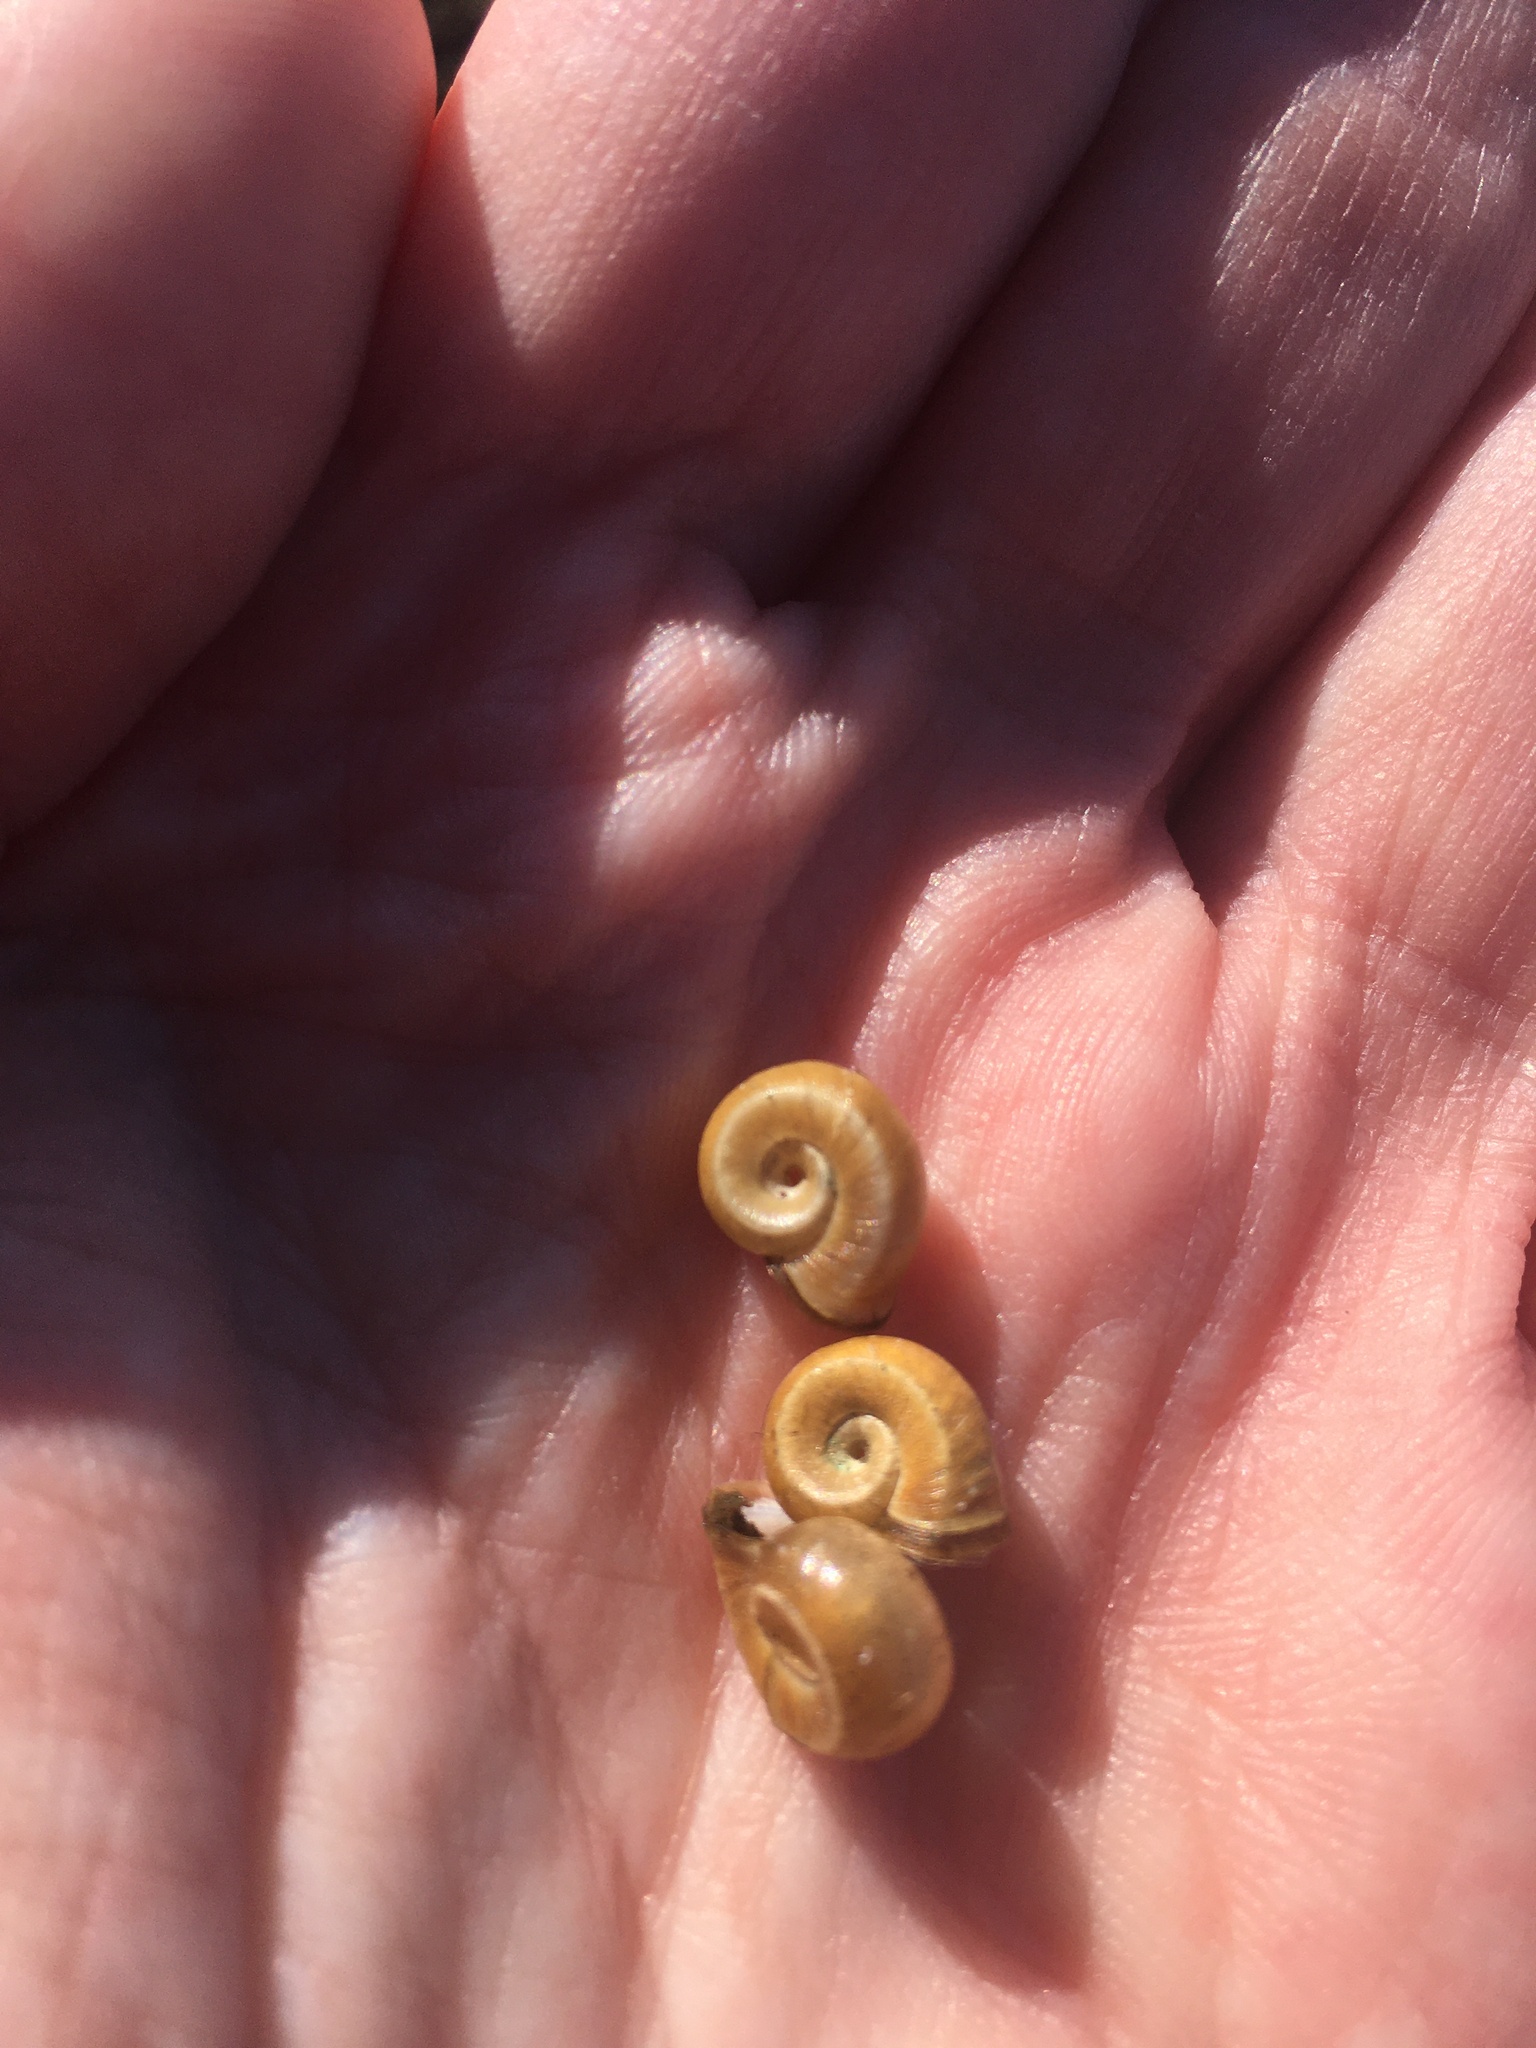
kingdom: Animalia
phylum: Mollusca
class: Gastropoda
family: Planorbidae
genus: Planorbella
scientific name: Planorbella campanulata
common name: Bellmouth ramshorn
